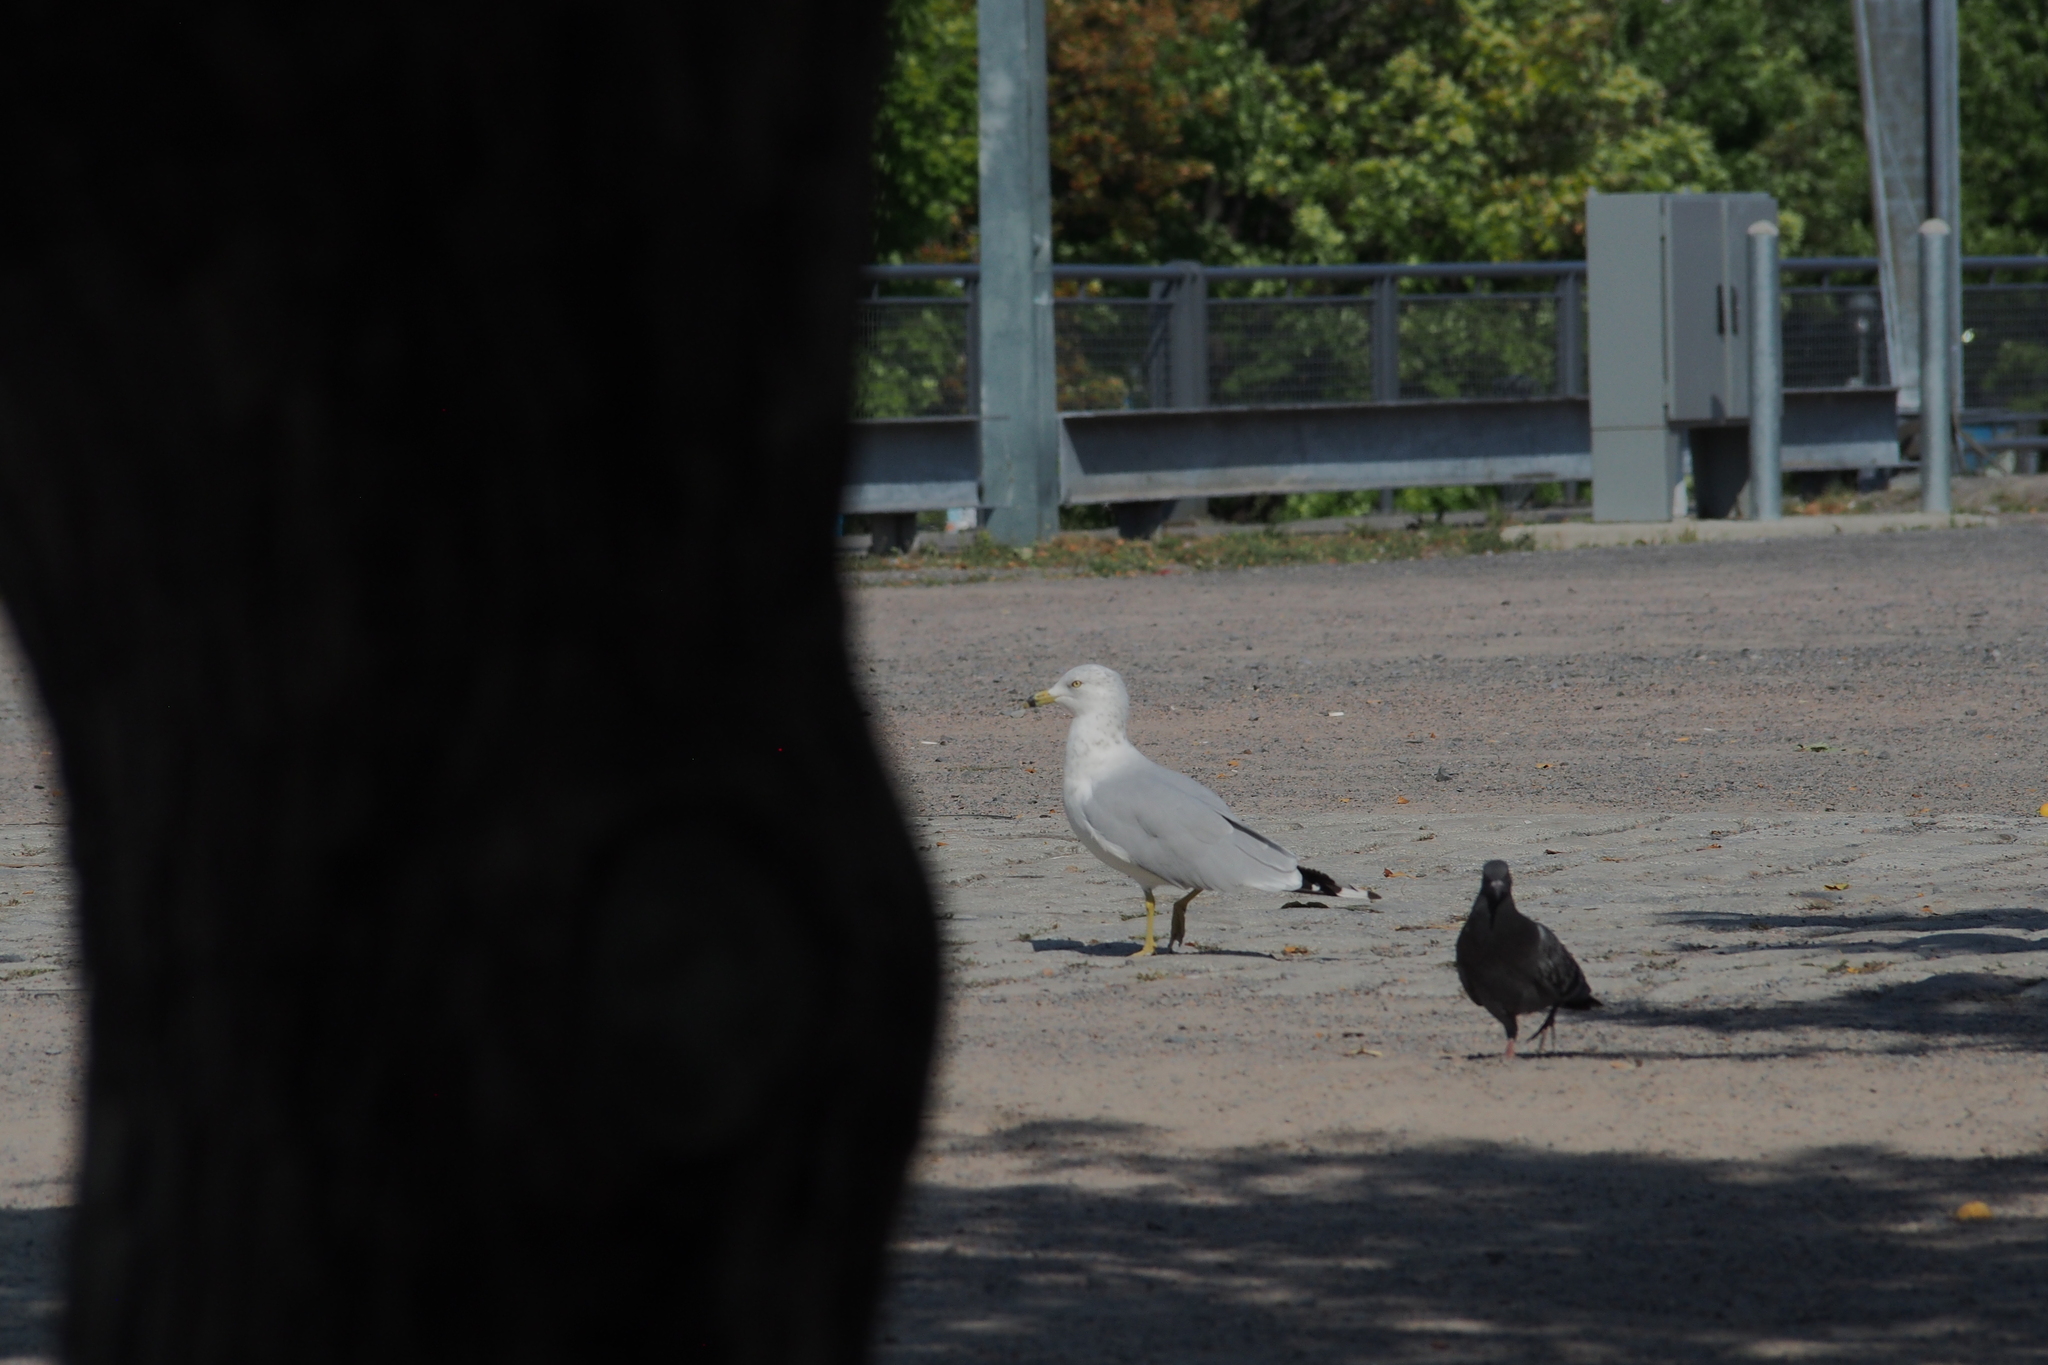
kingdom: Animalia
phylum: Chordata
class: Aves
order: Charadriiformes
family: Laridae
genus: Larus
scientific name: Larus delawarensis
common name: Ring-billed gull
